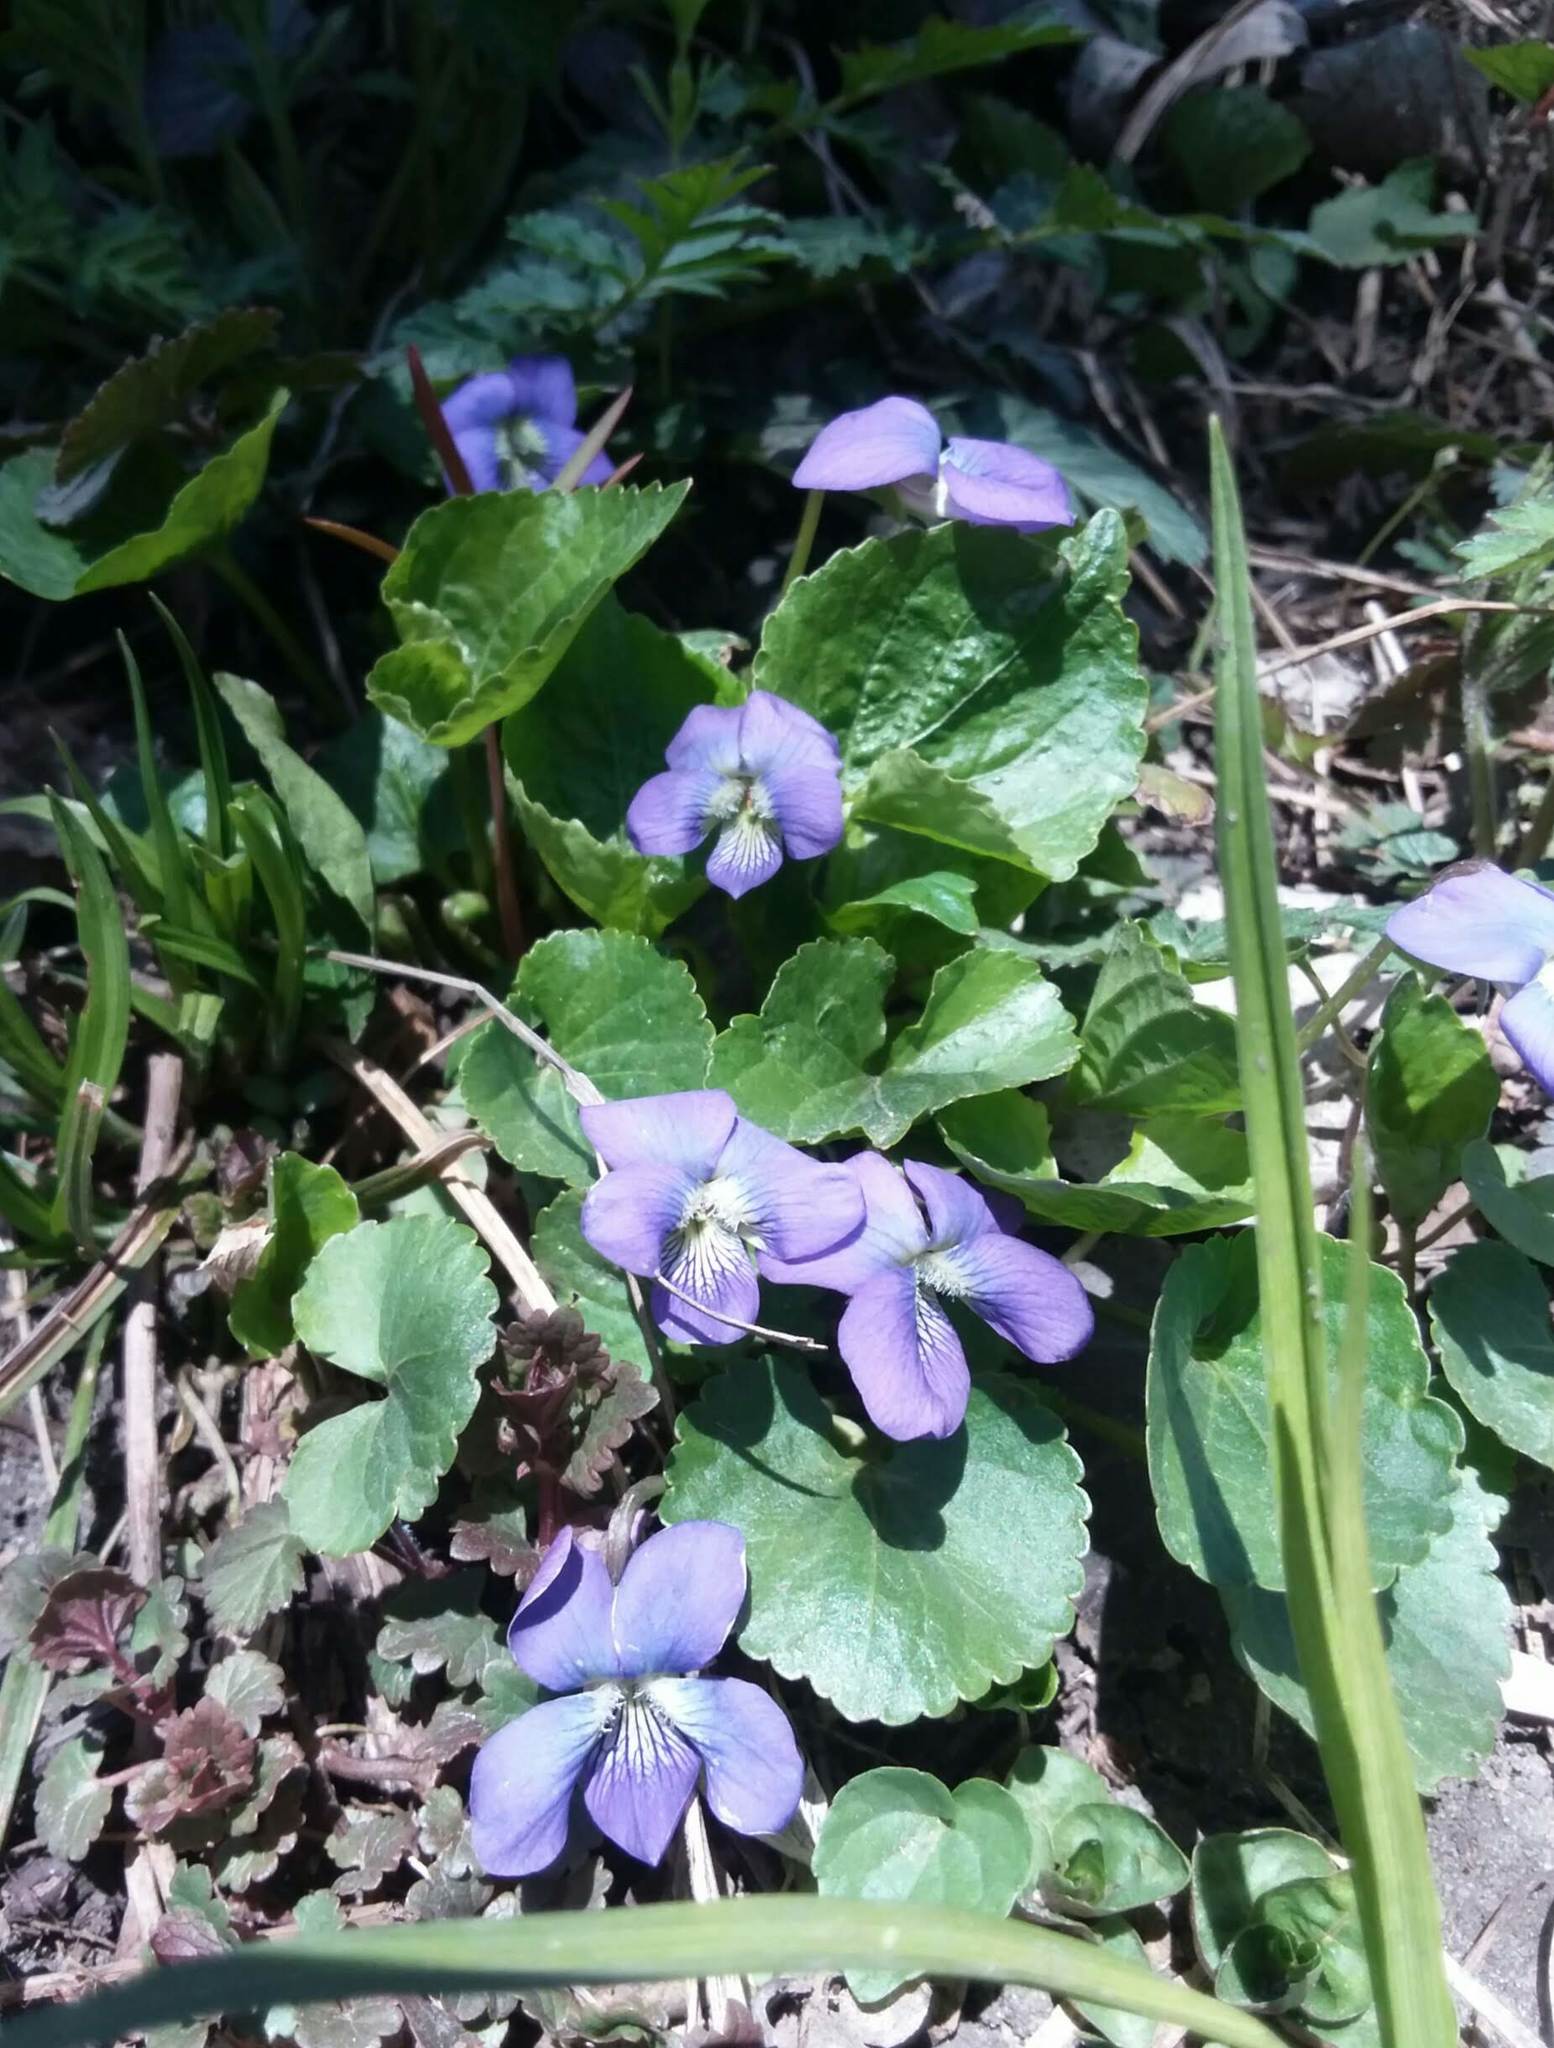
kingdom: Plantae
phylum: Tracheophyta
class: Magnoliopsida
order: Malpighiales
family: Violaceae
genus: Viola
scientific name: Viola sororia
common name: Dooryard violet
